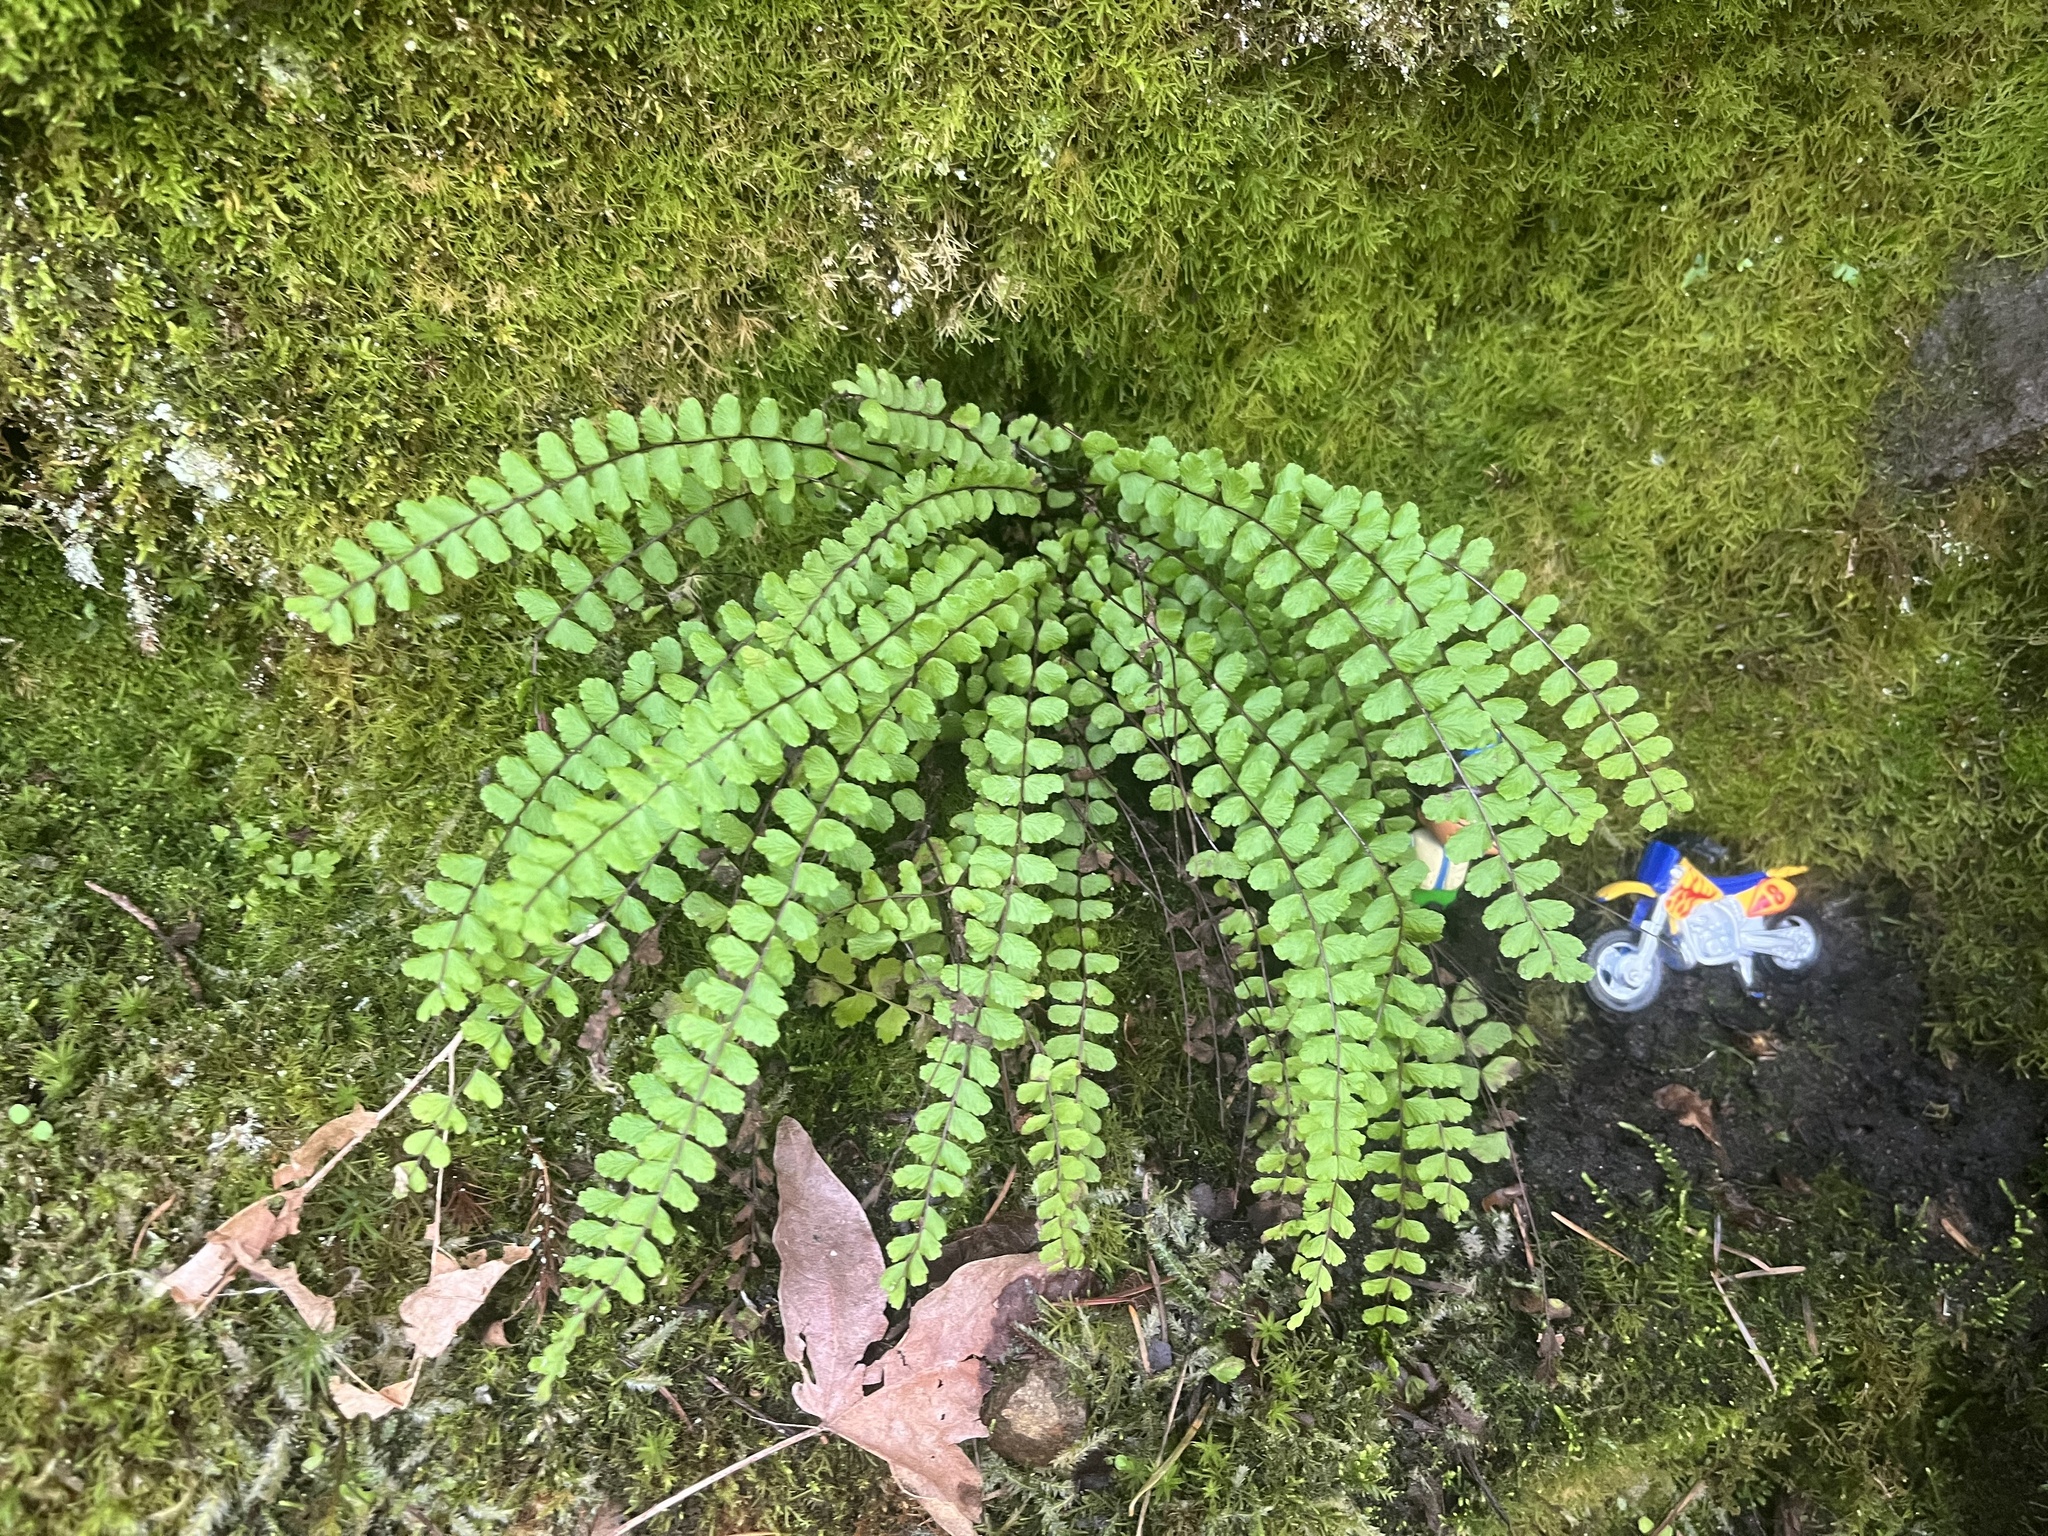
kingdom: Plantae
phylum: Tracheophyta
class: Polypodiopsida
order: Polypodiales
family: Aspleniaceae
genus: Asplenium
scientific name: Asplenium trichomanes
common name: Maidenhair spleenwort
